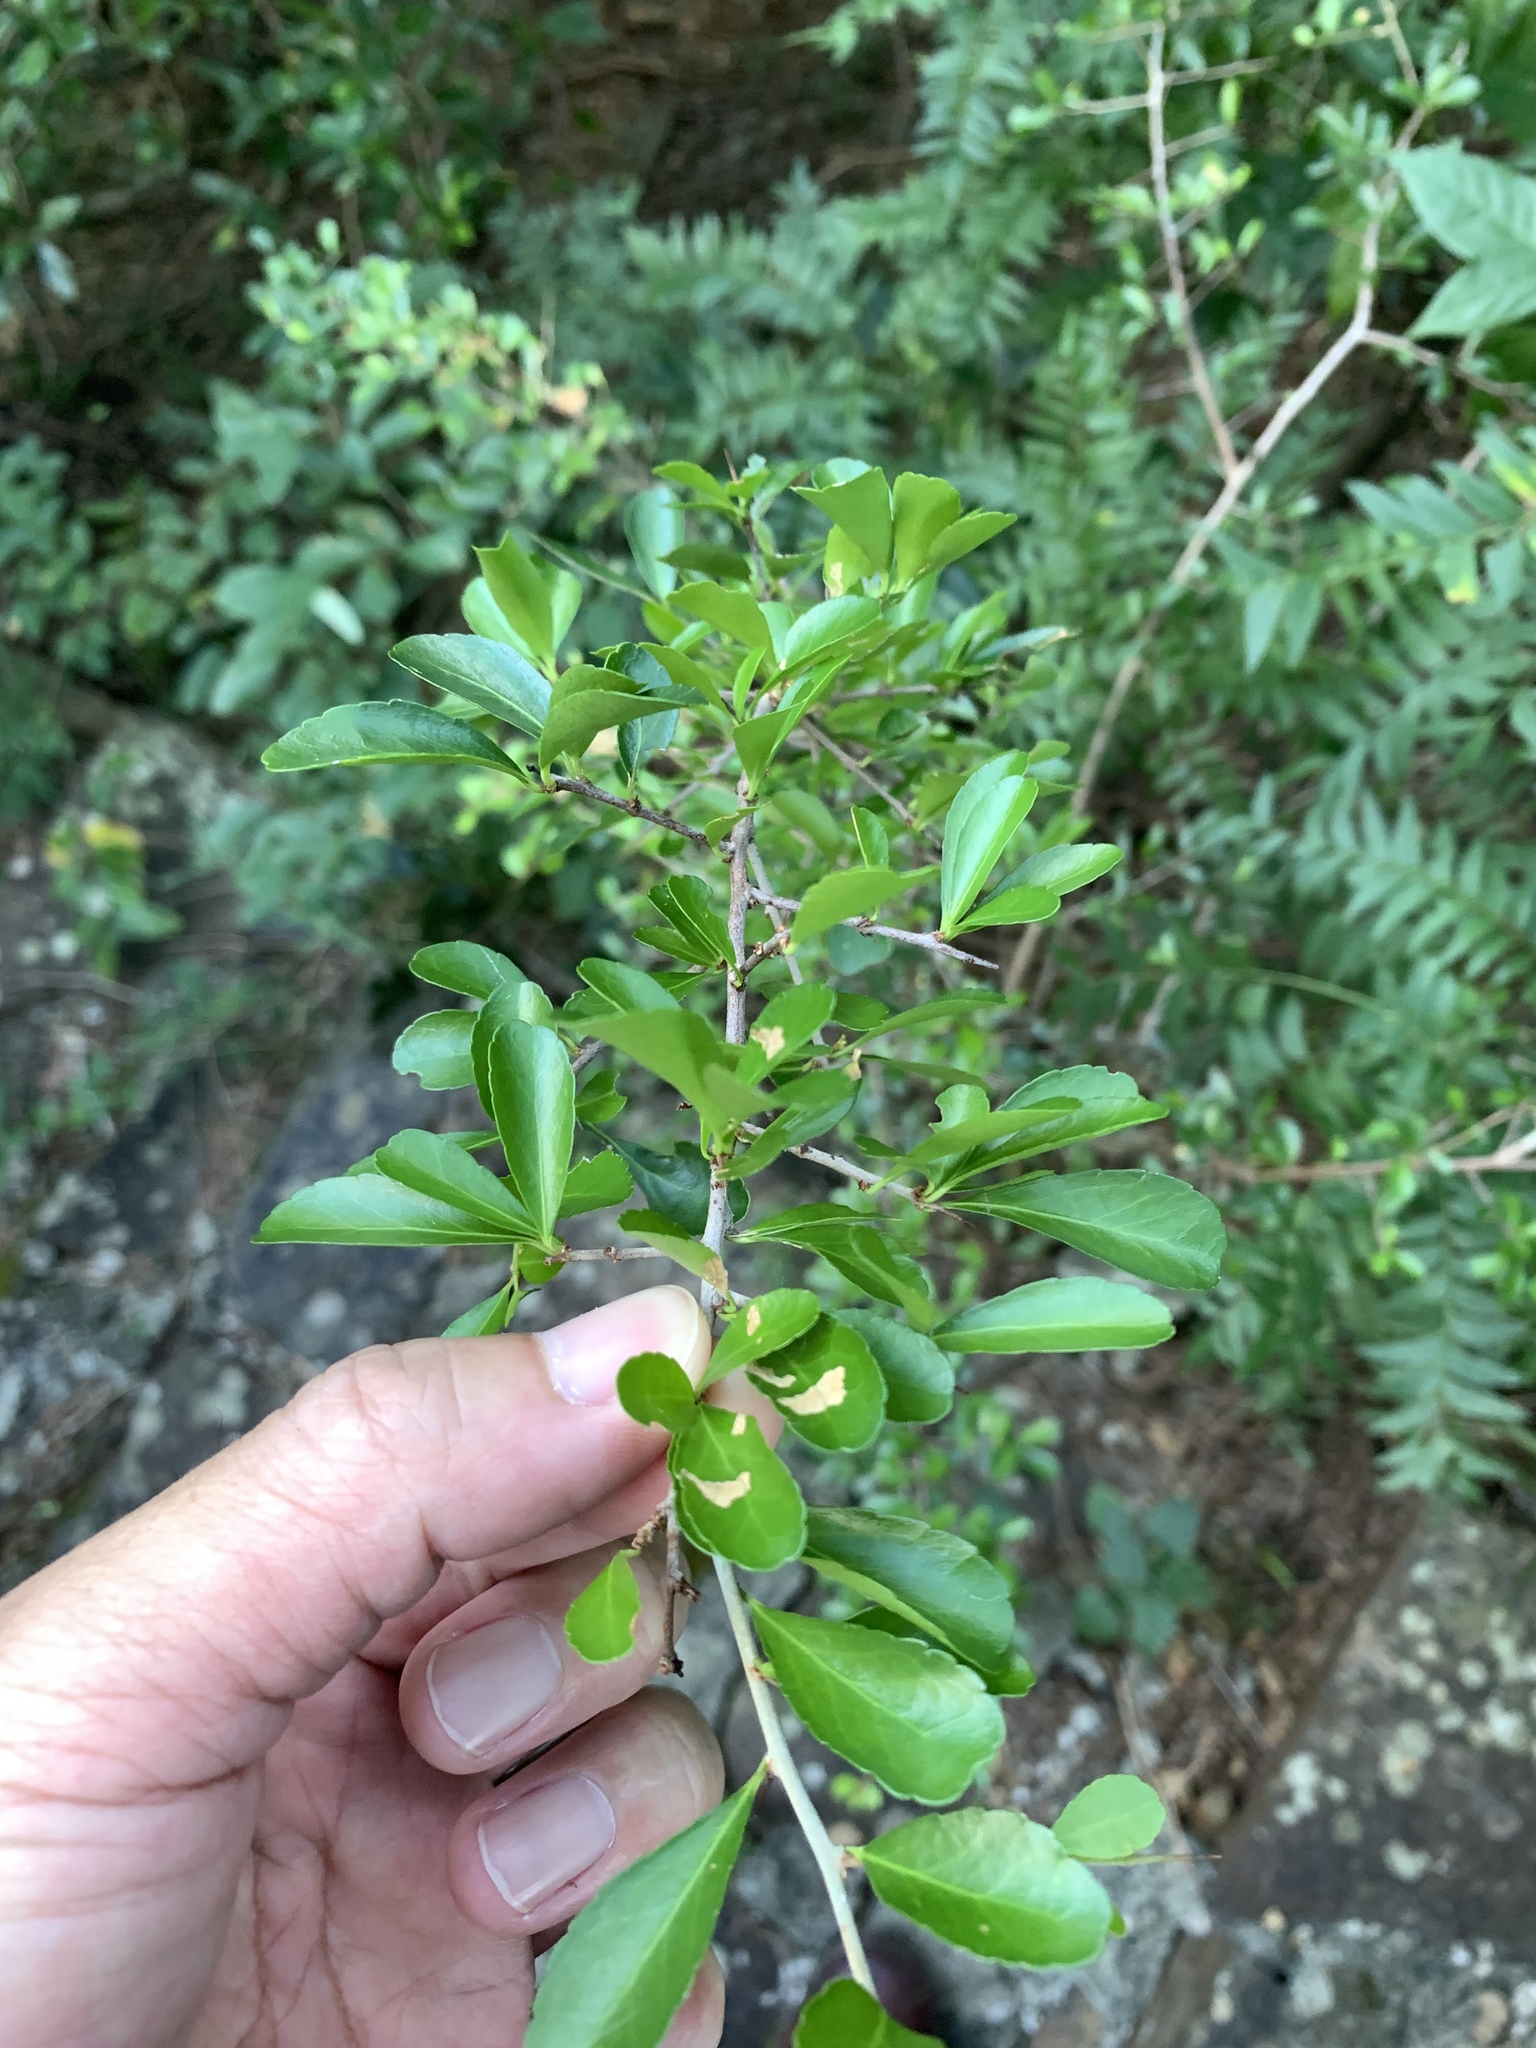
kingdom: Plantae
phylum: Tracheophyta
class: Magnoliopsida
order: Rosales
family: Moraceae
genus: Maclura
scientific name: Maclura cochinchinensis
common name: Cockspurthorn
